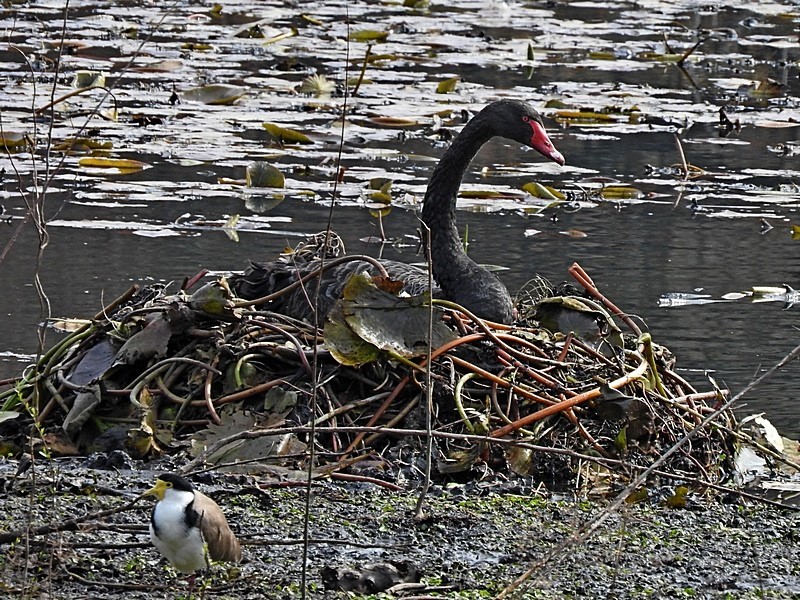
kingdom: Animalia
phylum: Chordata
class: Aves
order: Anseriformes
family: Anatidae
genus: Cygnus
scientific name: Cygnus atratus
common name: Black swan
